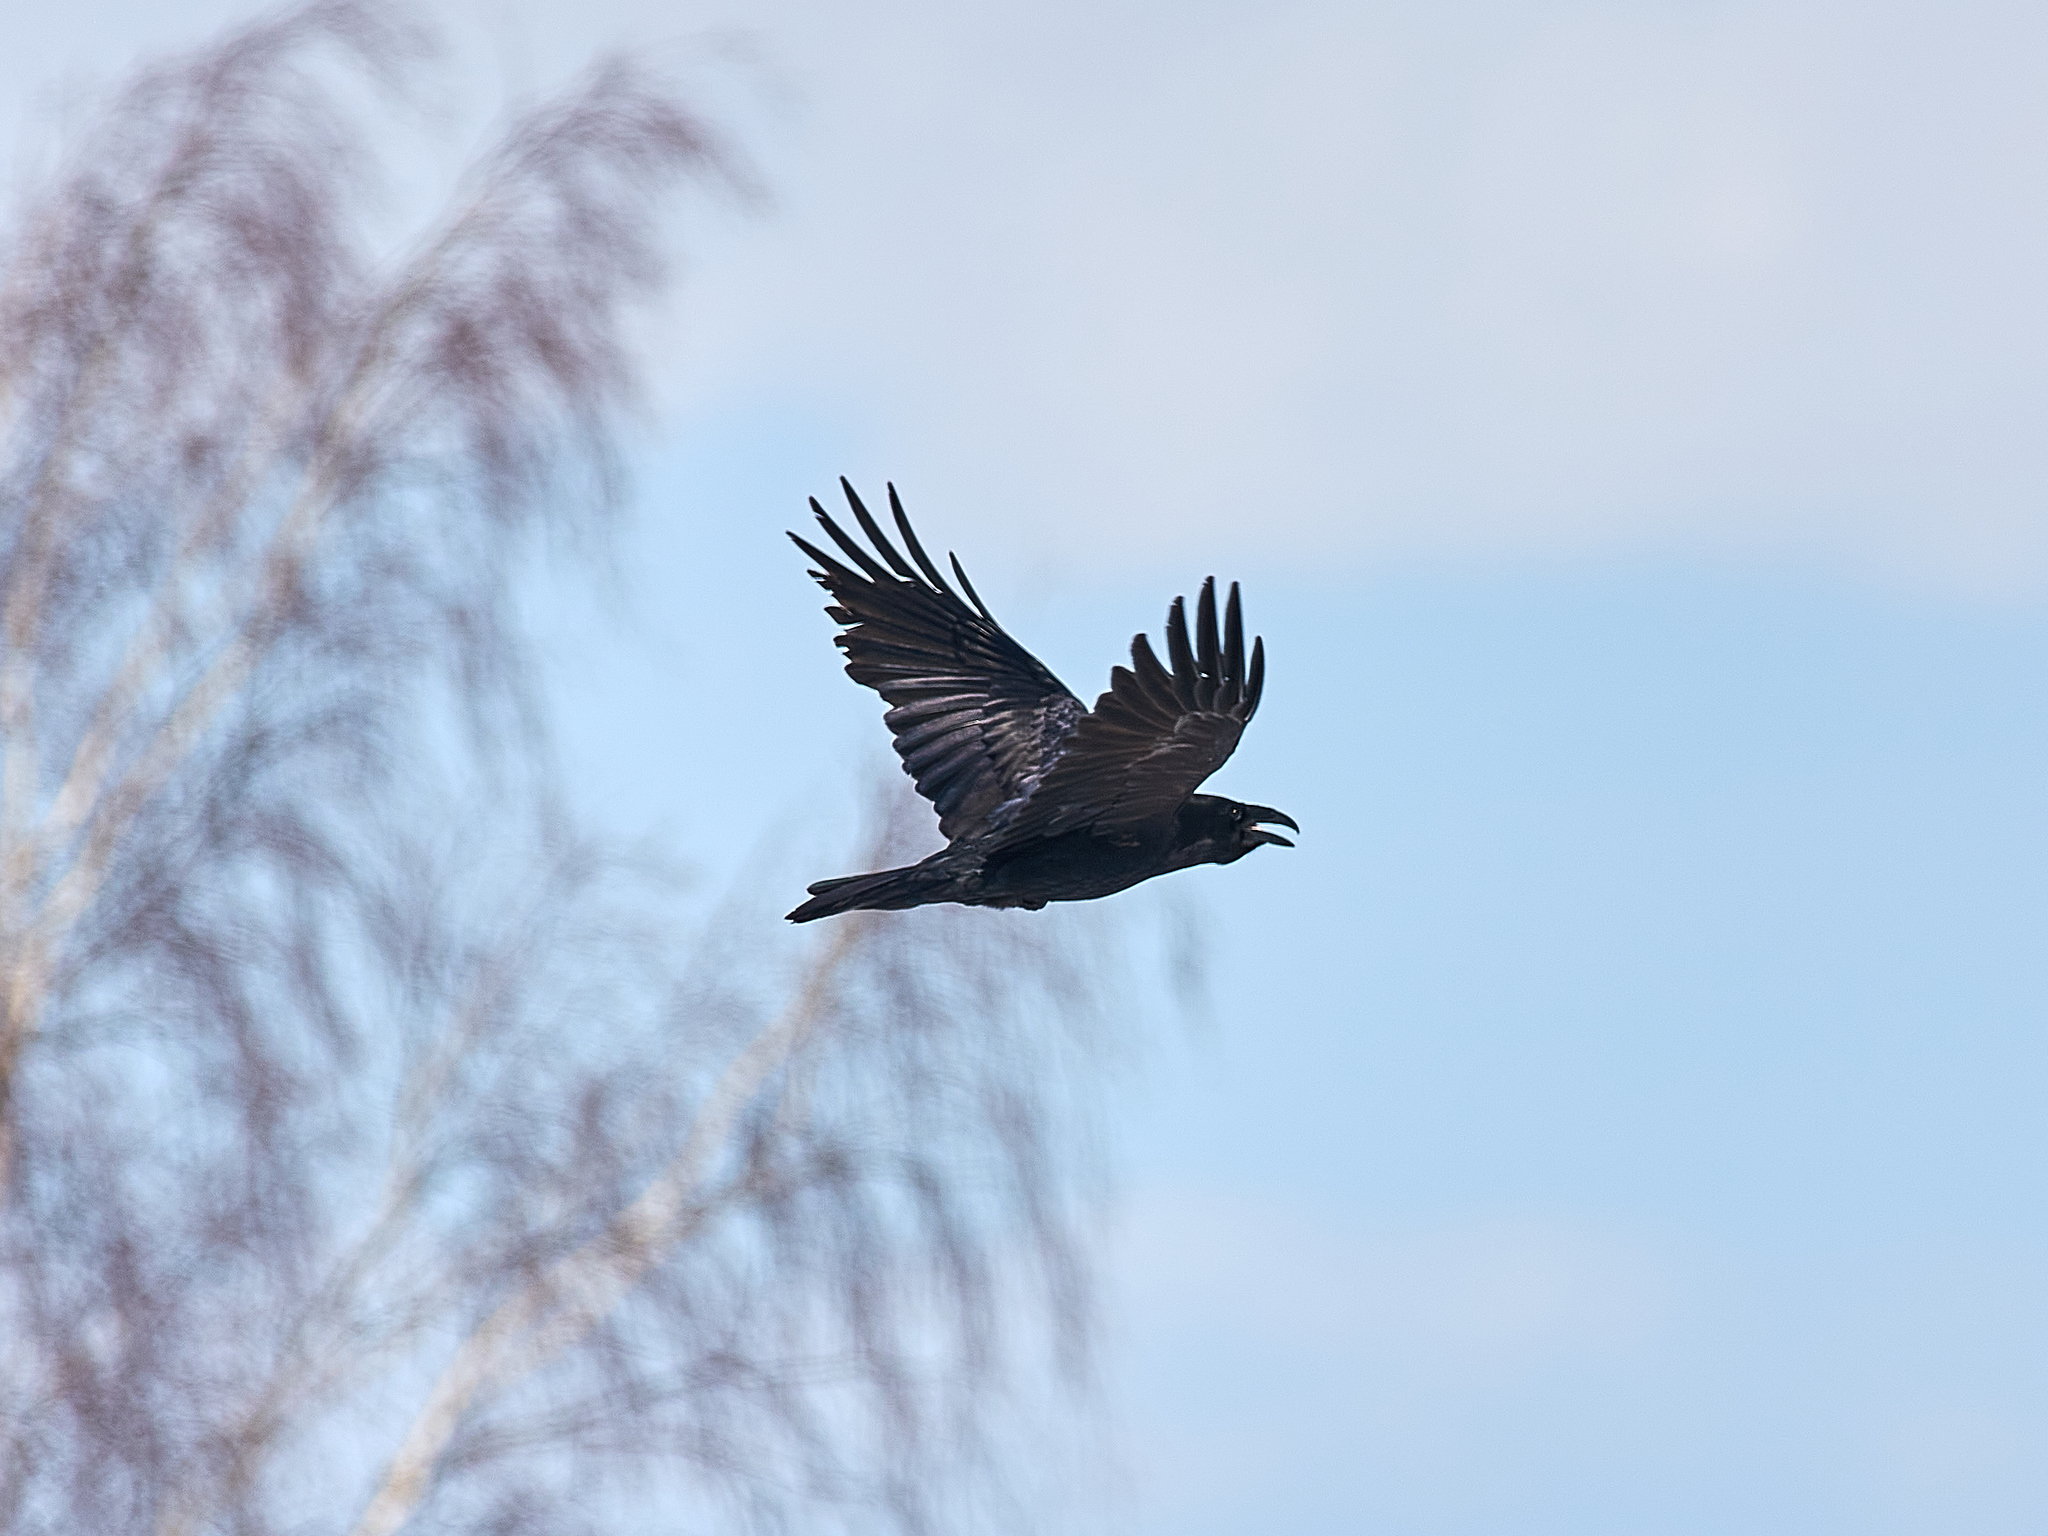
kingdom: Animalia
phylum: Chordata
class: Aves
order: Passeriformes
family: Corvidae
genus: Corvus
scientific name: Corvus corax
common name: Common raven
